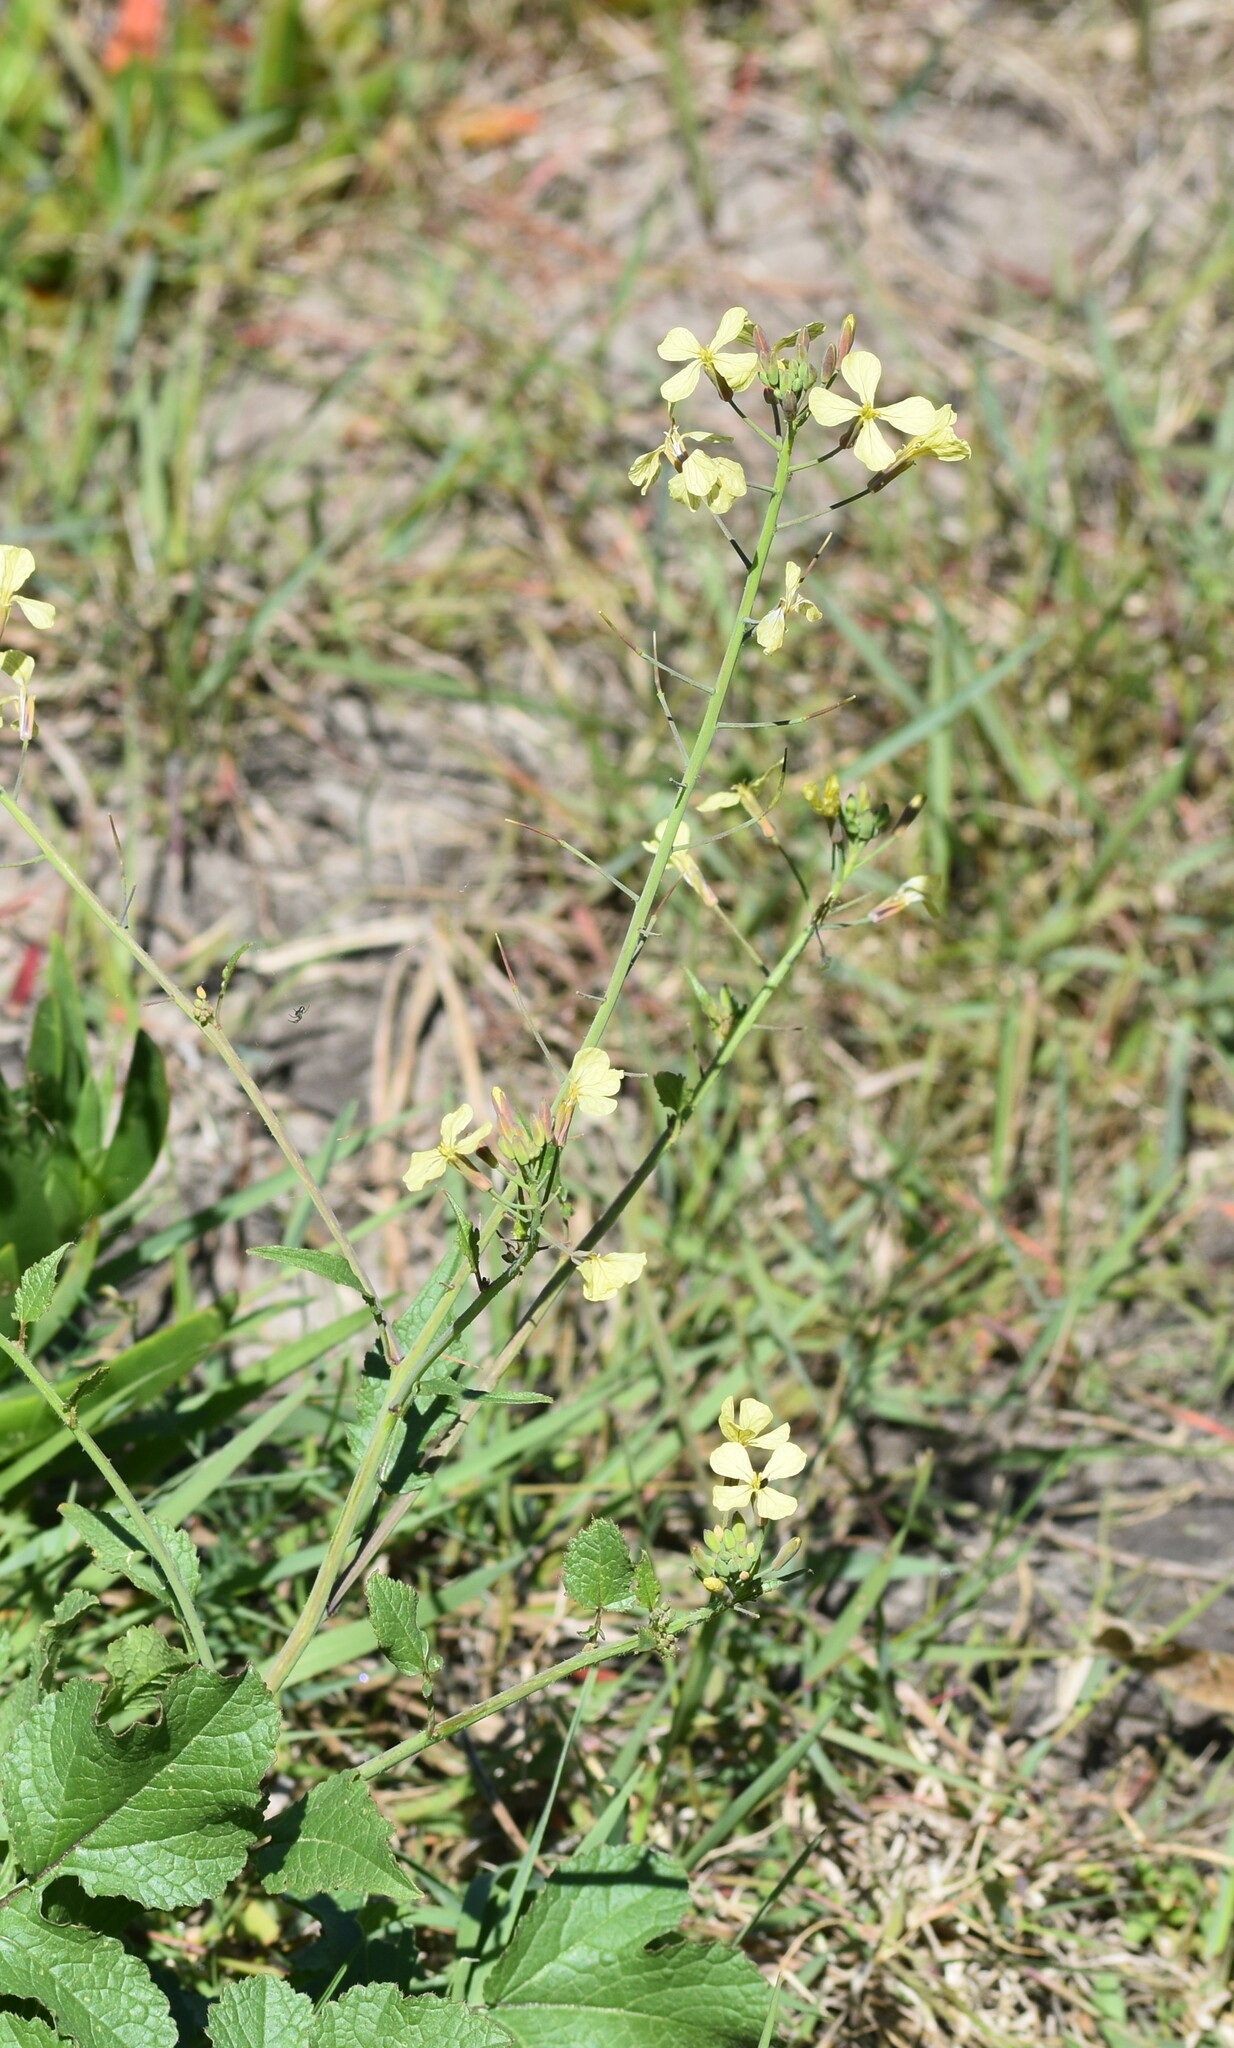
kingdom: Plantae
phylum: Tracheophyta
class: Magnoliopsida
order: Brassicales
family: Brassicaceae
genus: Raphanus
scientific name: Raphanus raphanistrum
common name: Wild radish
